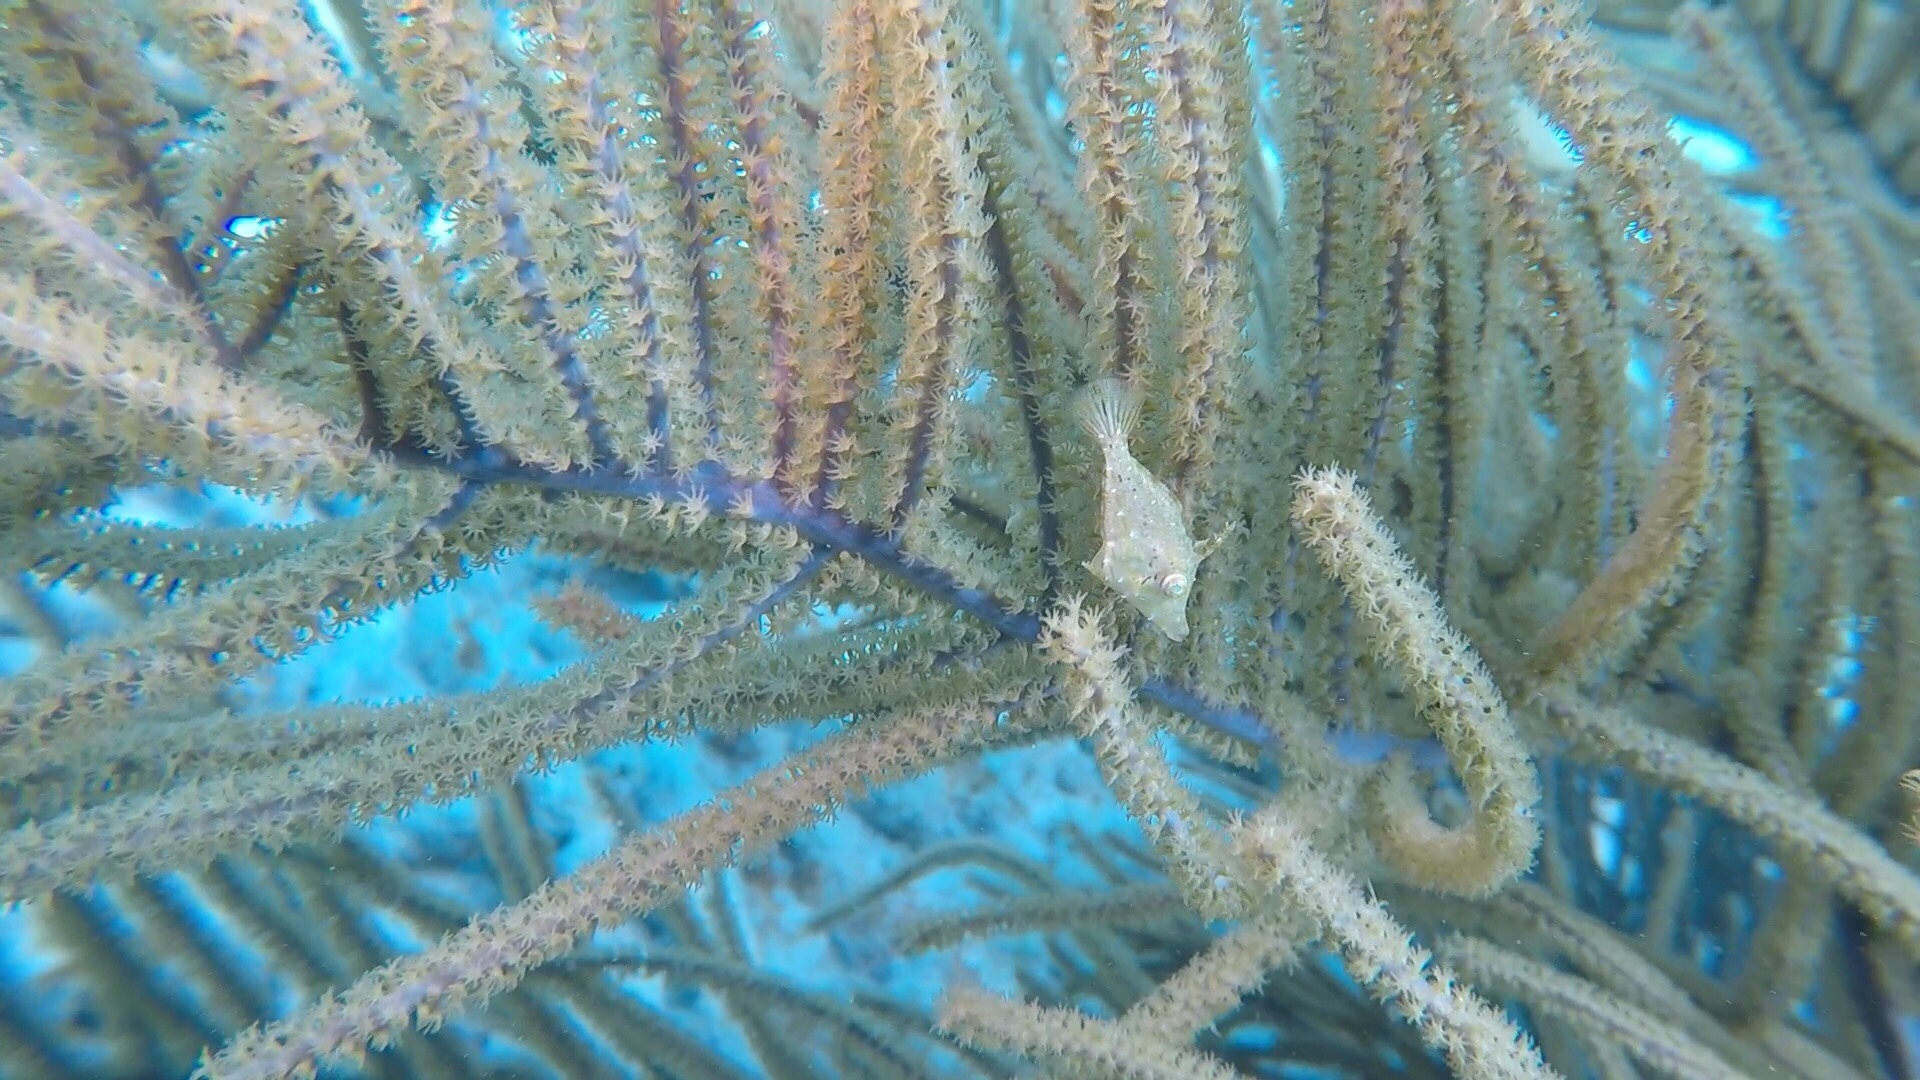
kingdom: Animalia
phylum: Chordata
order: Tetraodontiformes
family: Monacanthidae
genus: Monacanthus
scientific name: Monacanthus tuckeri
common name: Slender filefish
